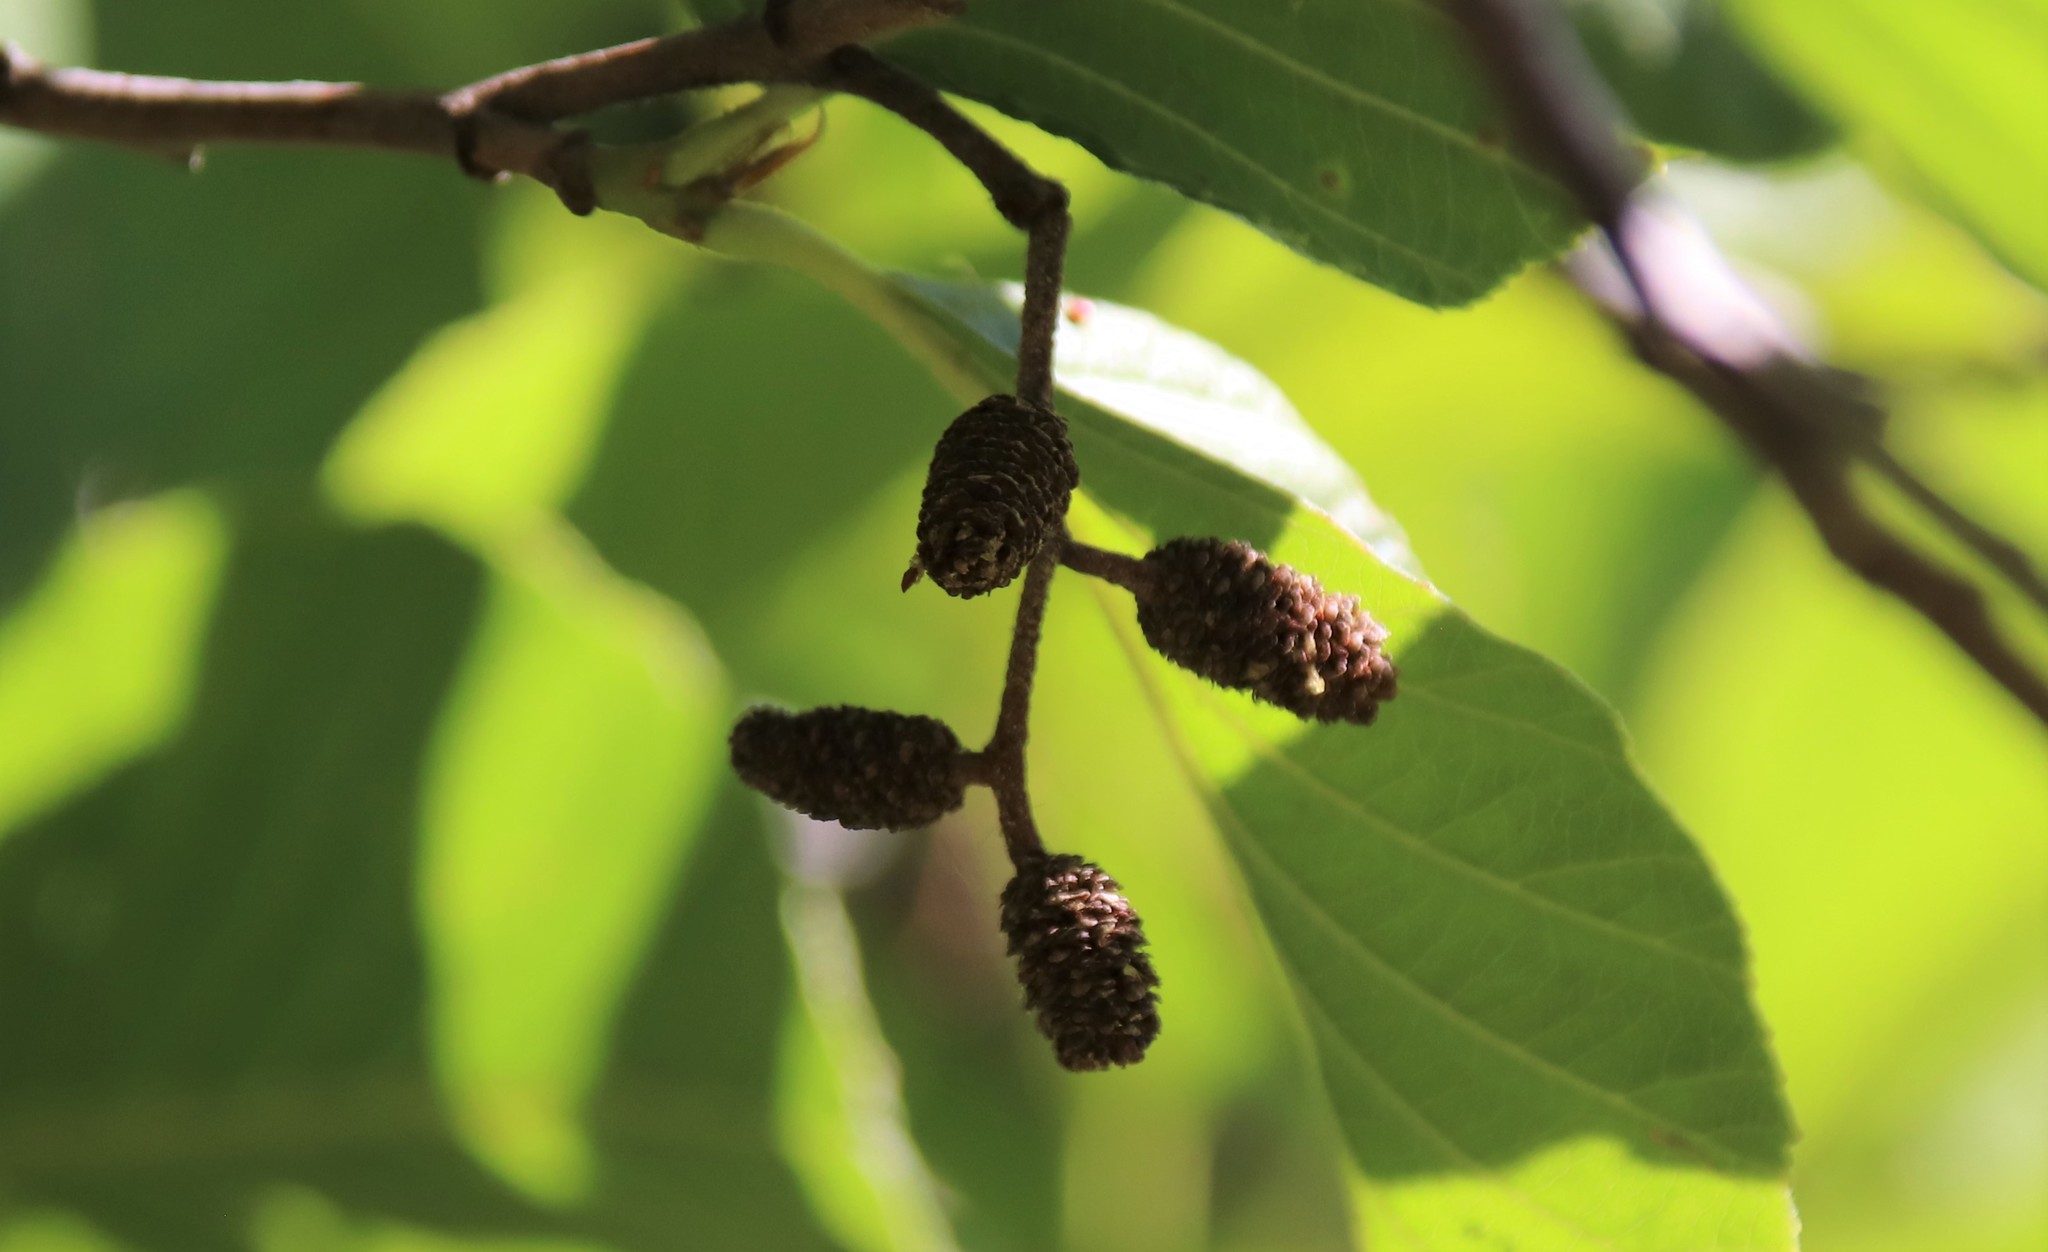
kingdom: Plantae
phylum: Tracheophyta
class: Magnoliopsida
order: Fagales
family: Betulaceae
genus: Alnus
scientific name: Alnus rhombifolia
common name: California alder
